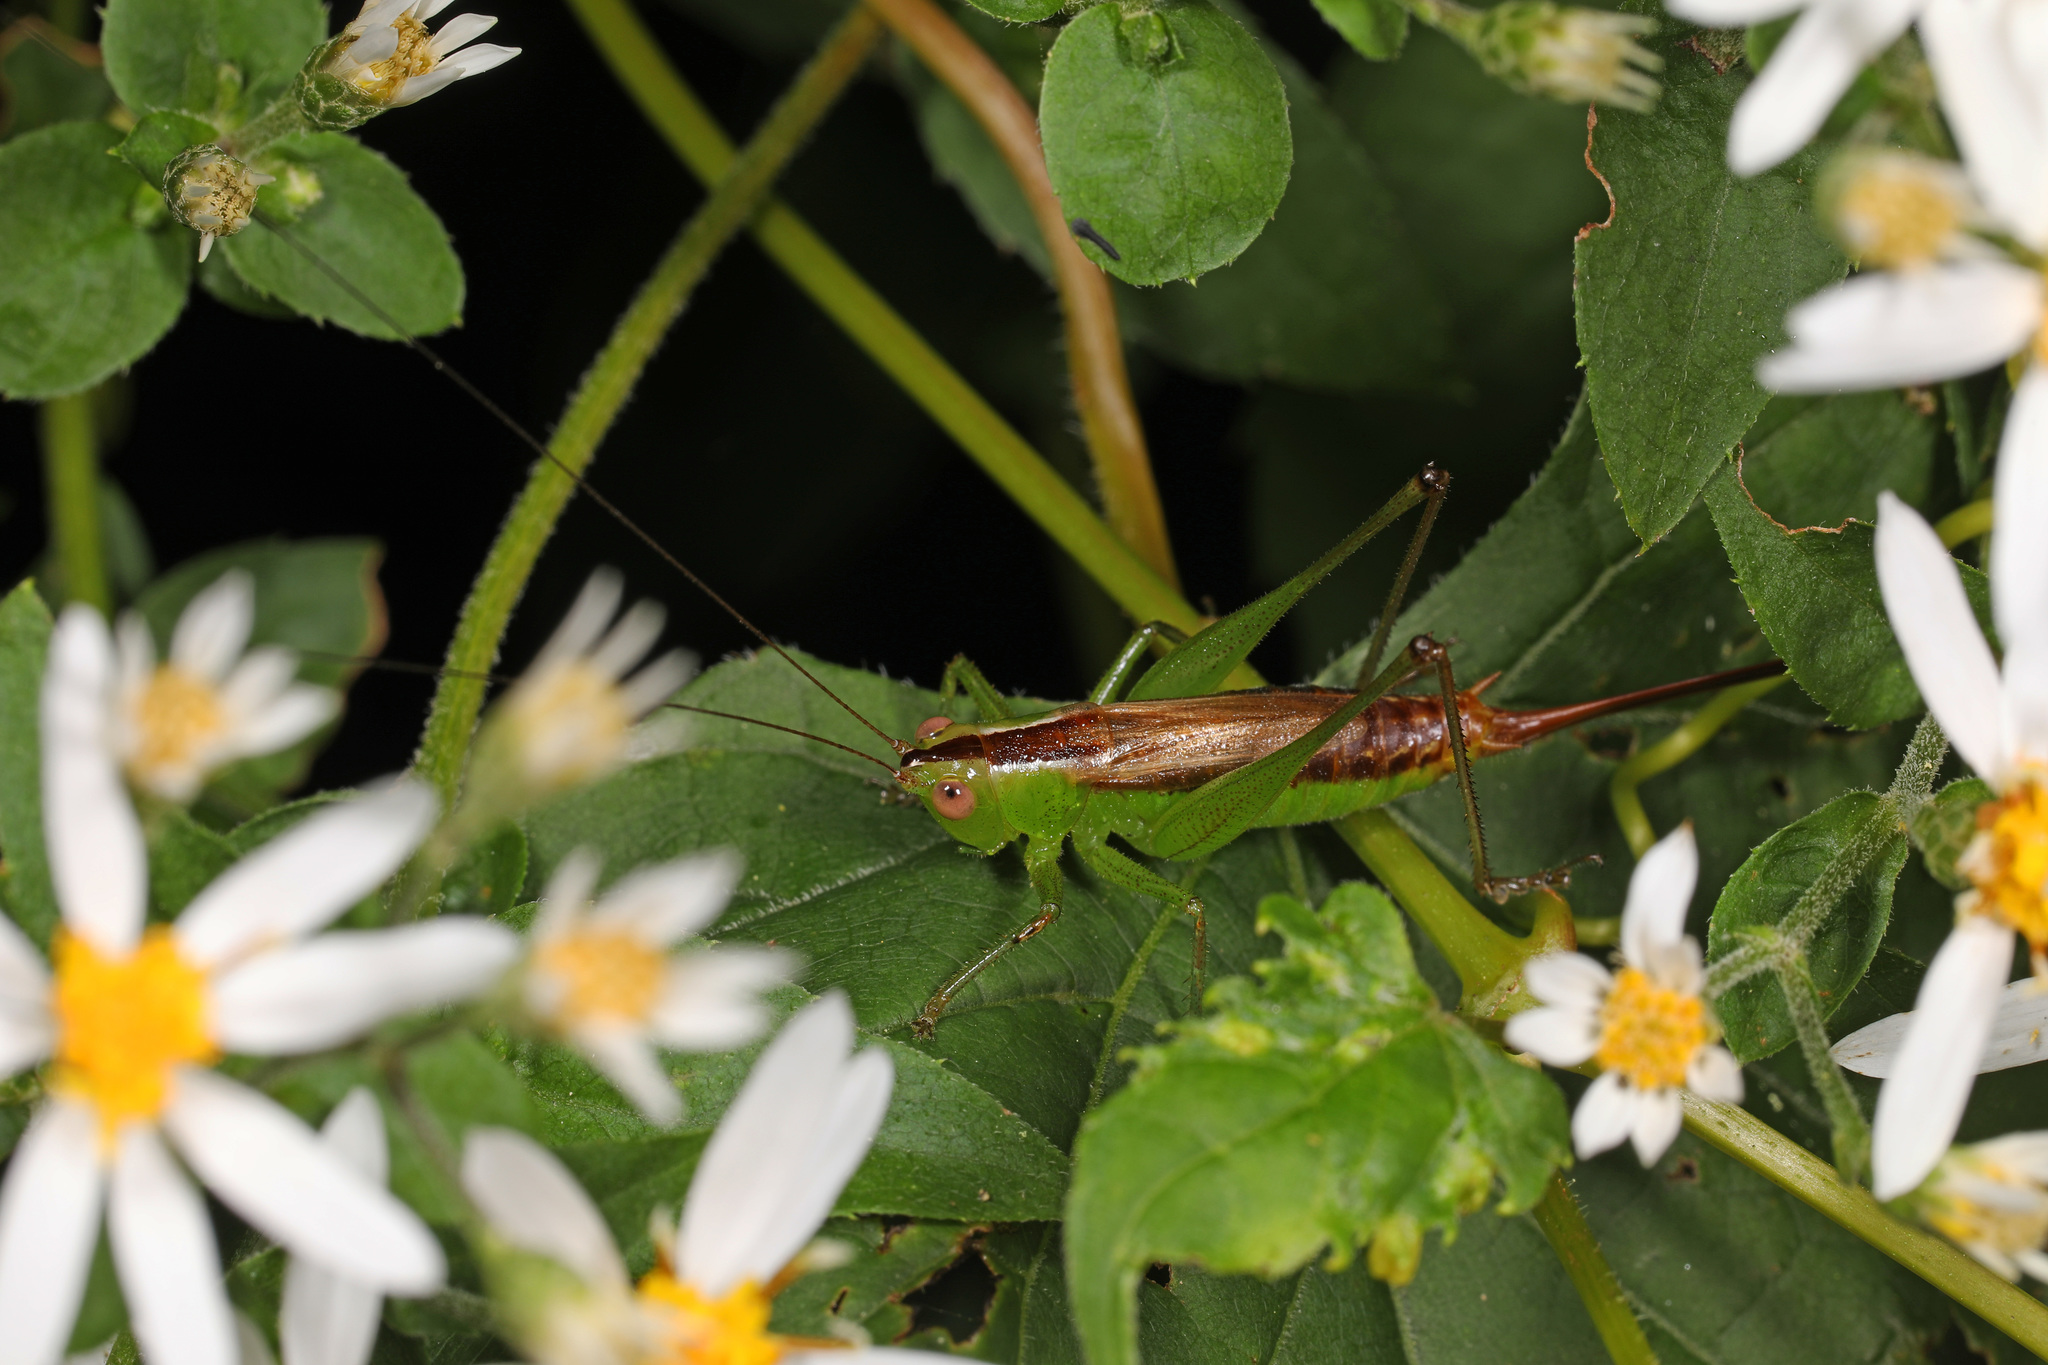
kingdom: Animalia
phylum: Arthropoda
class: Insecta
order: Orthoptera
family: Tettigoniidae
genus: Conocephalus
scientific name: Conocephalus brevipennis
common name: Short-winged meadow katydid
